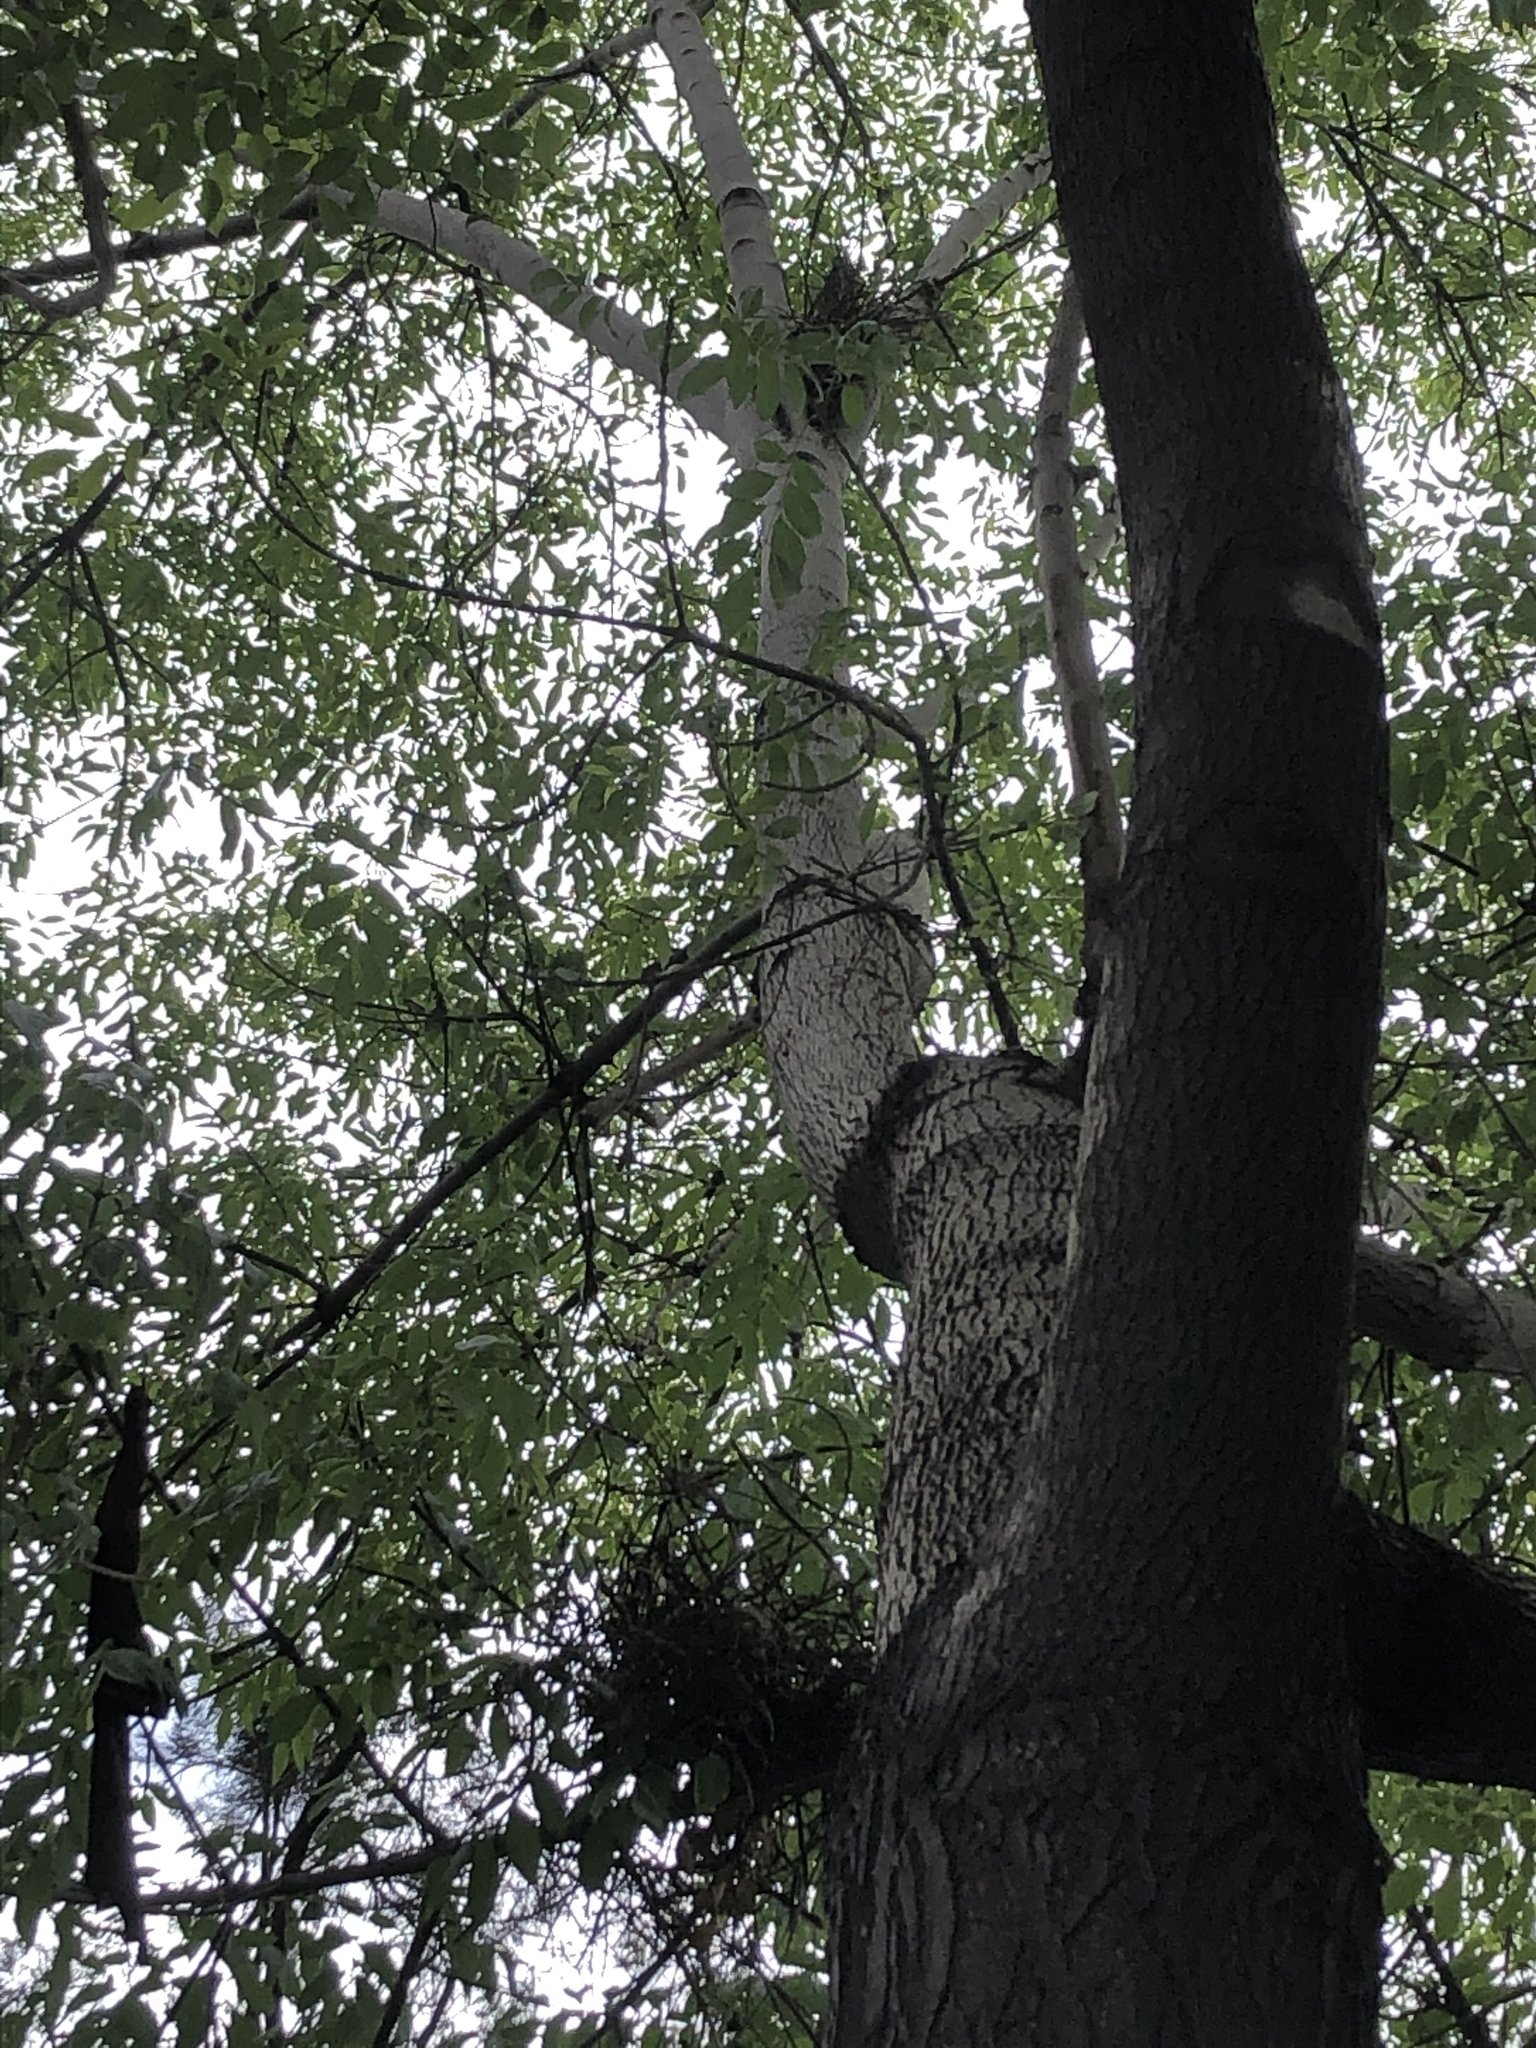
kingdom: Animalia
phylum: Chordata
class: Aves
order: Accipitriformes
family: Accipitridae
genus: Accipiter
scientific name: Accipiter cooperii
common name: Cooper's hawk
